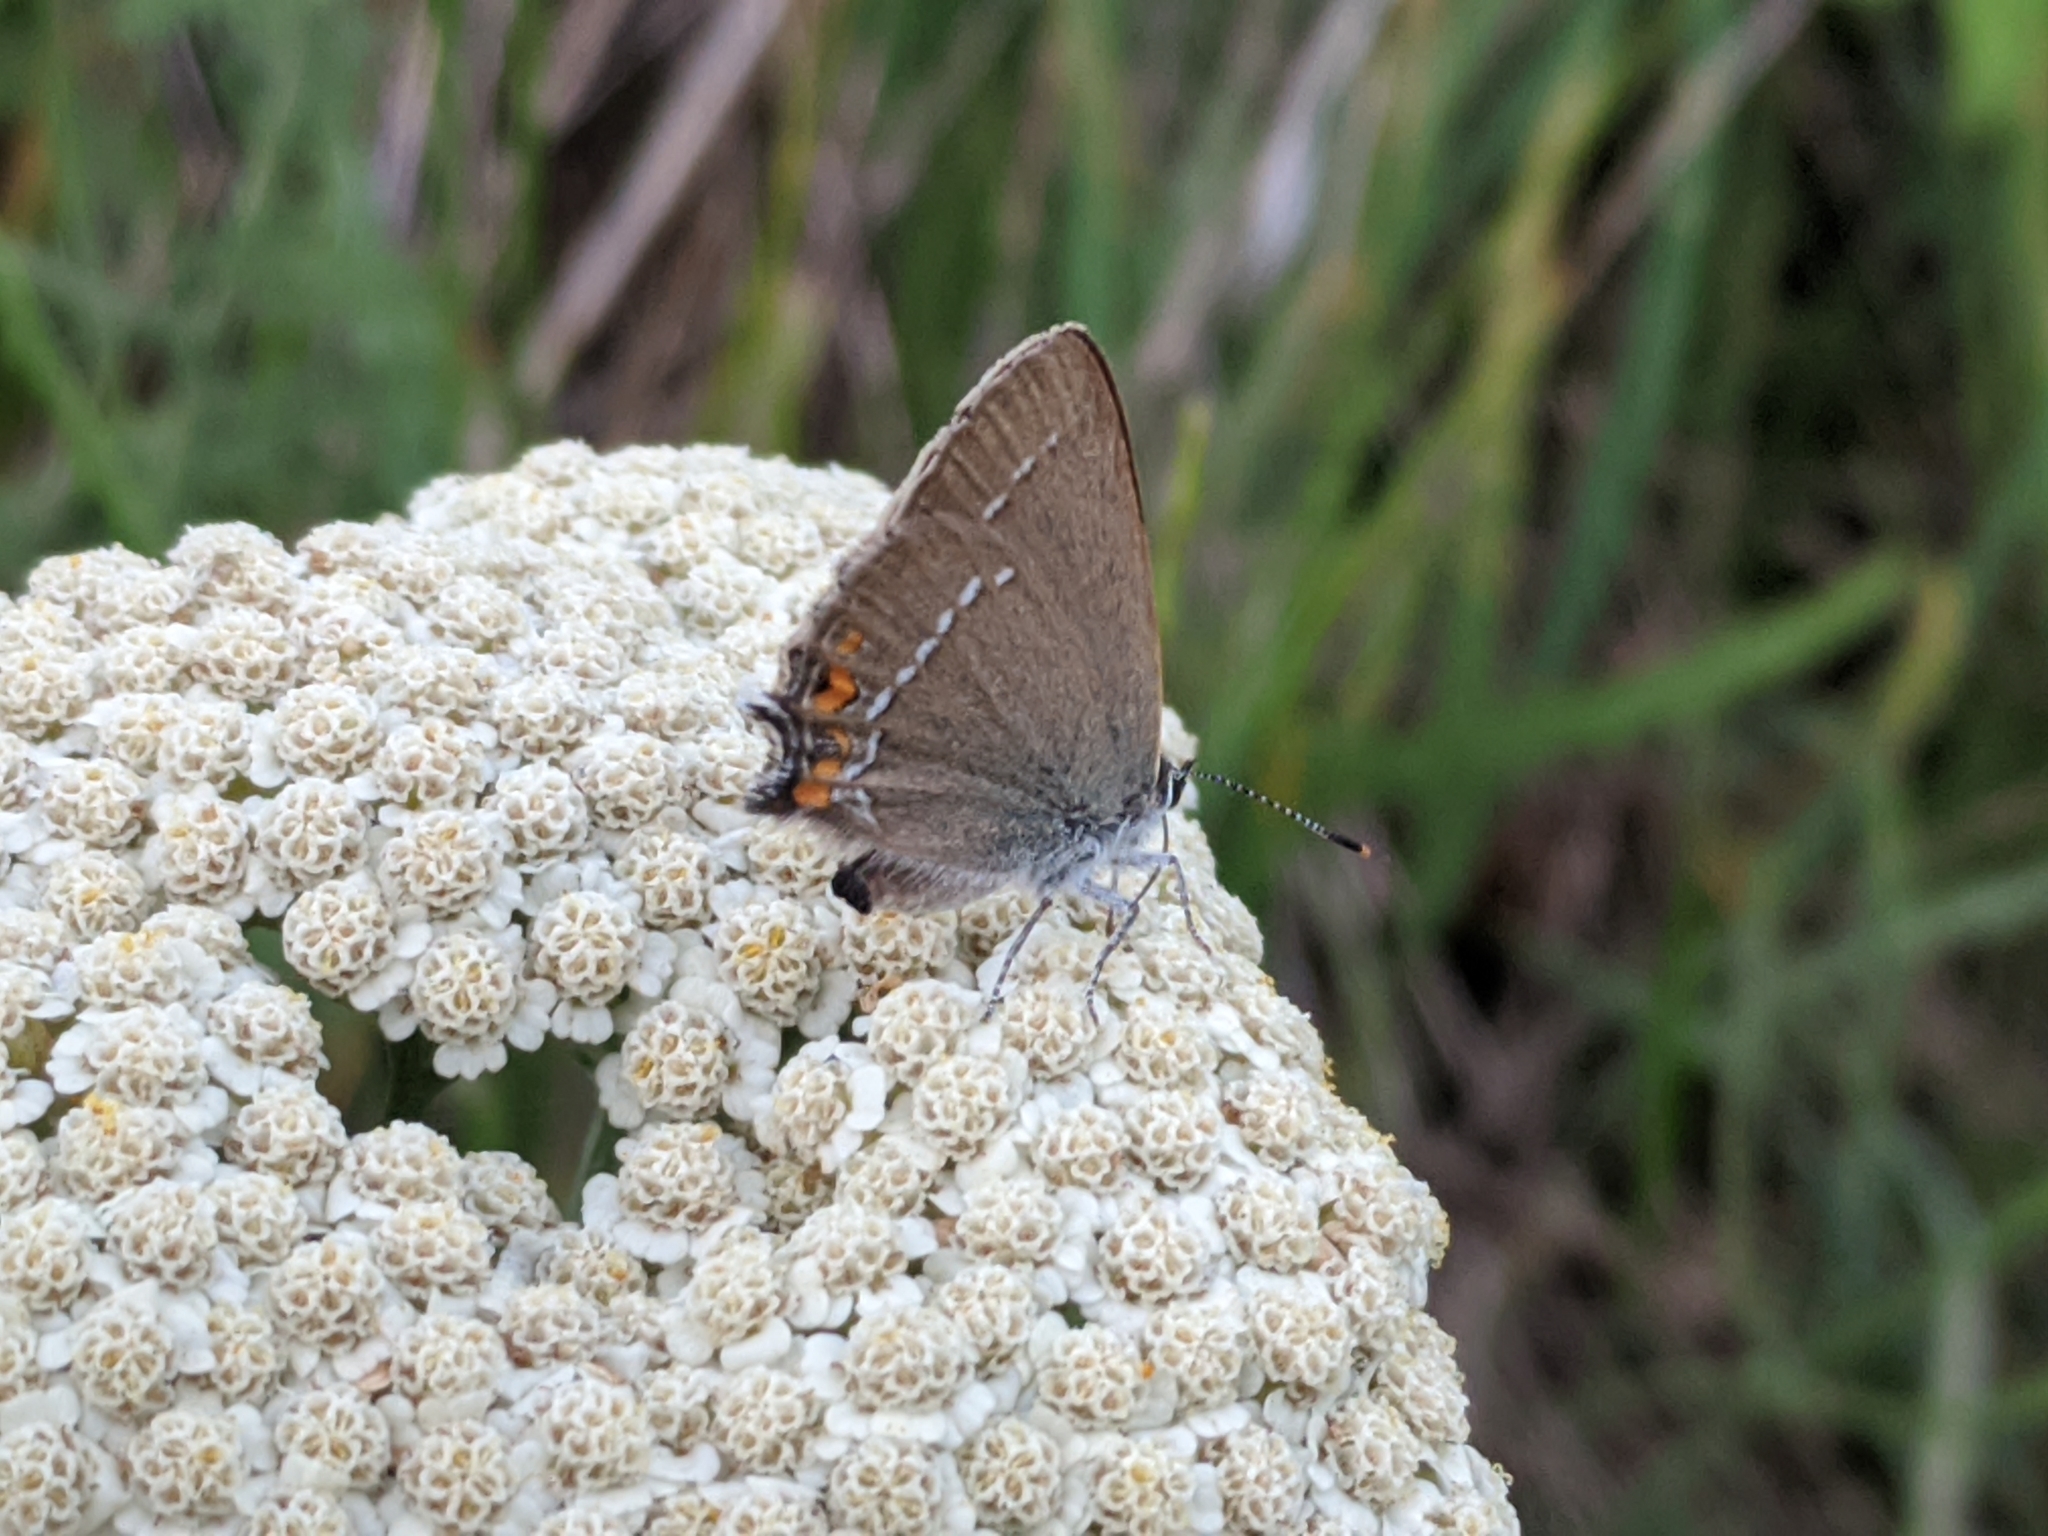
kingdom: Animalia
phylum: Arthropoda
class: Insecta
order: Lepidoptera
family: Lycaenidae
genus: Strymon
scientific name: Strymon acaciae
